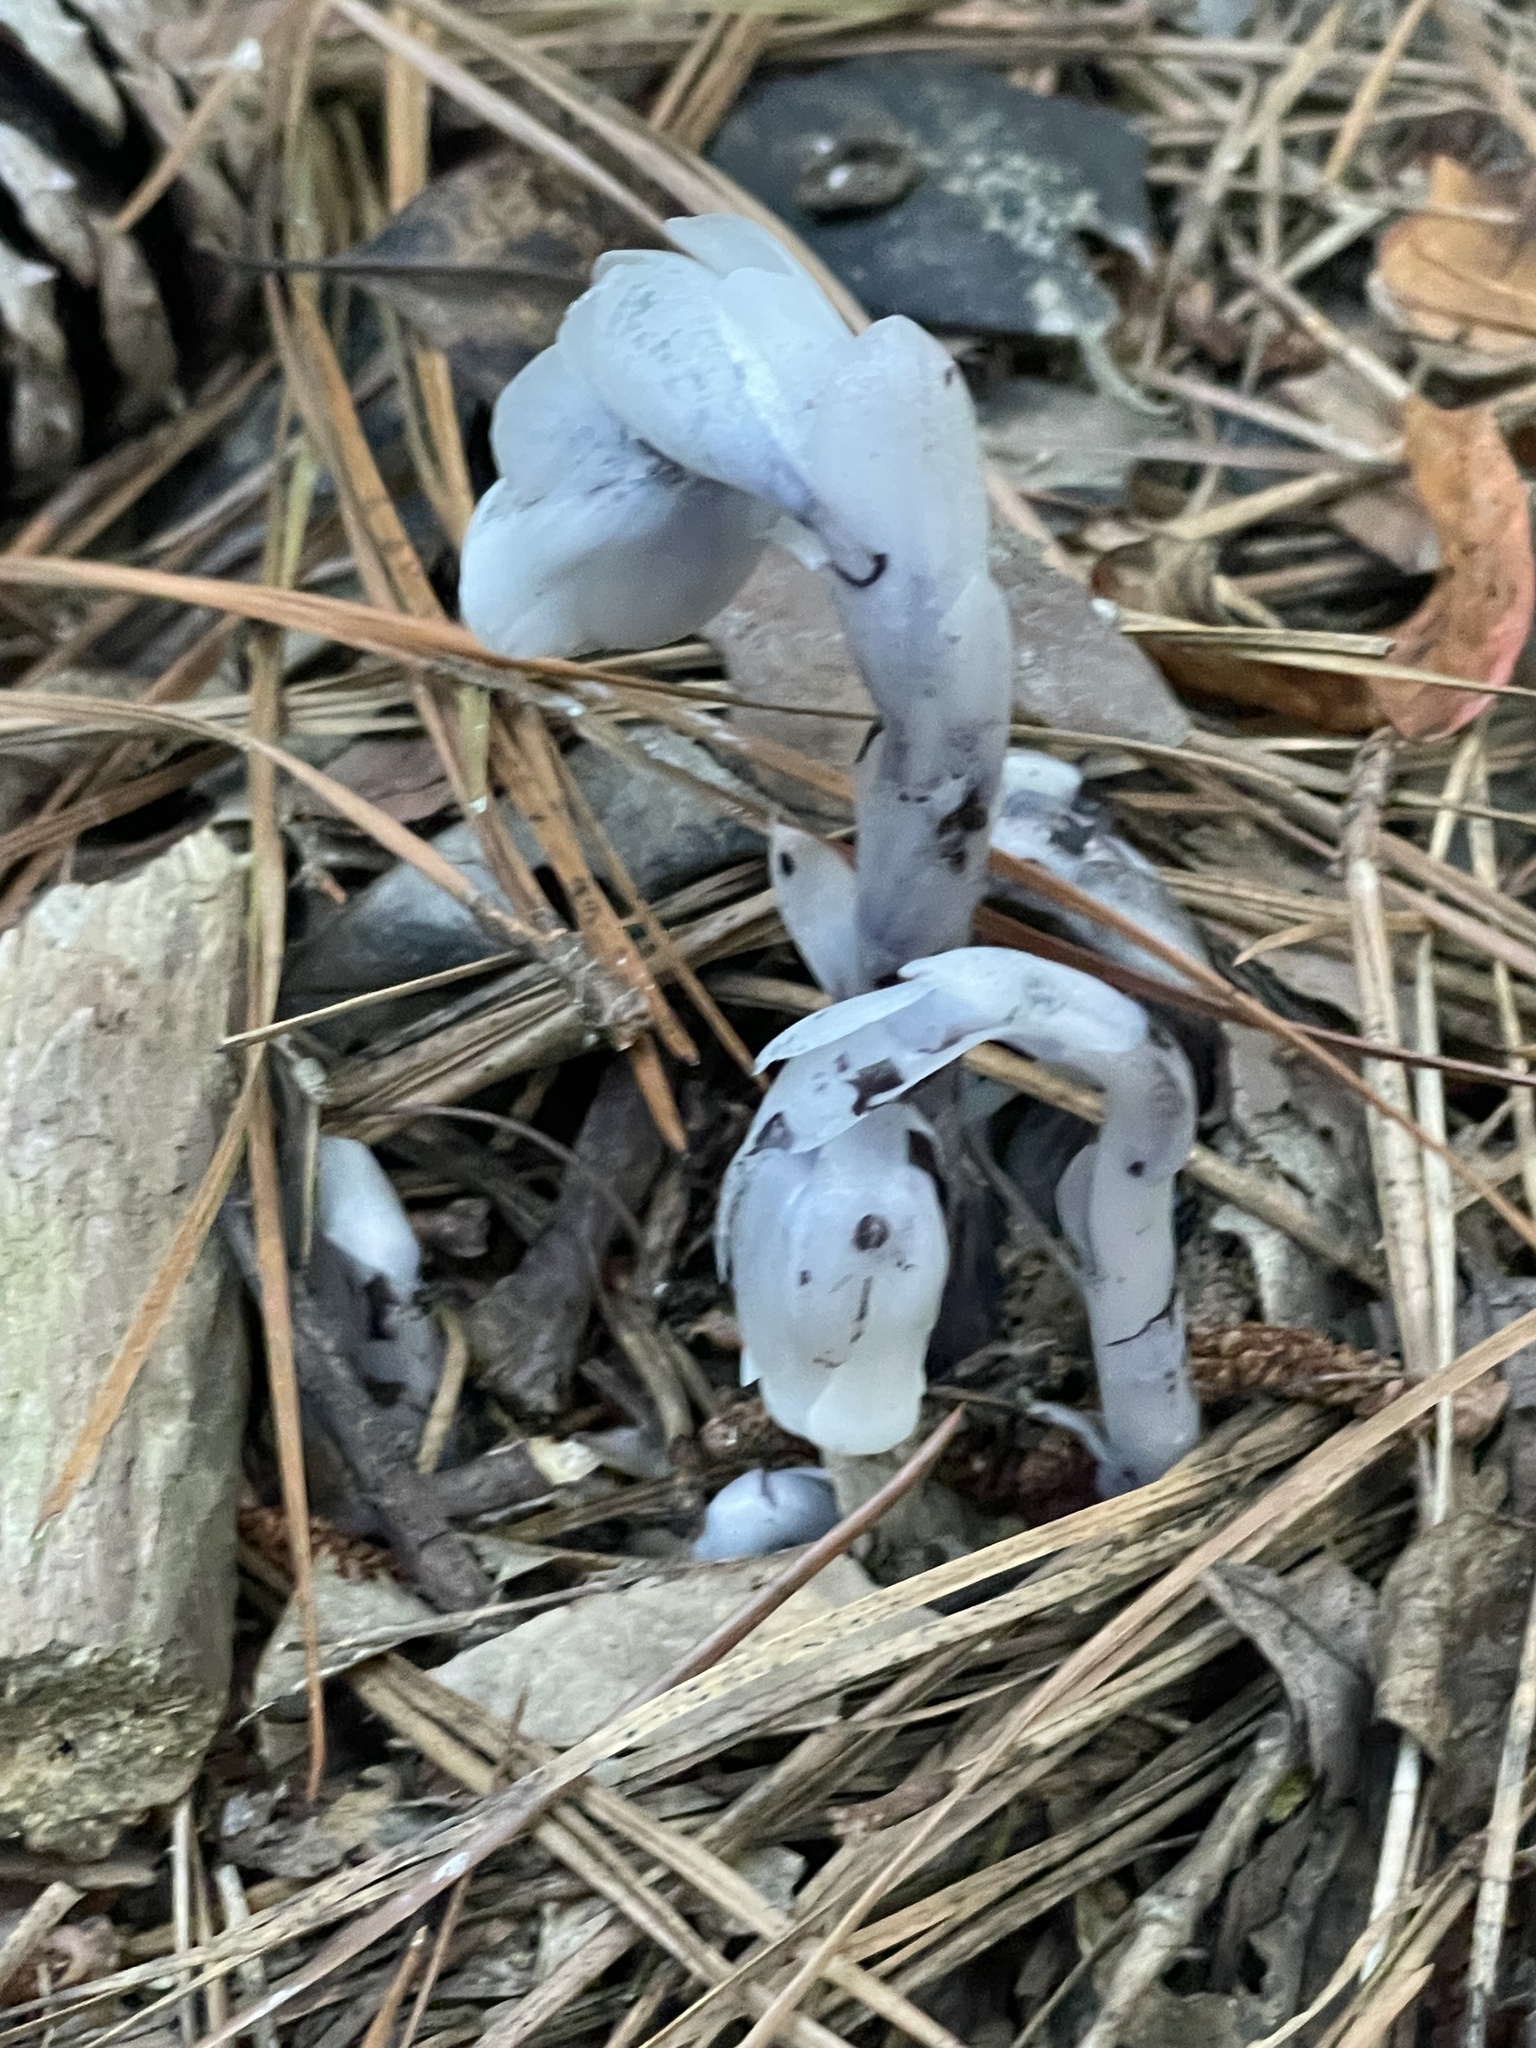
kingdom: Plantae
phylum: Tracheophyta
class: Magnoliopsida
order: Ericales
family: Ericaceae
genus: Monotropa
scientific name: Monotropa uniflora
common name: Convulsion root
